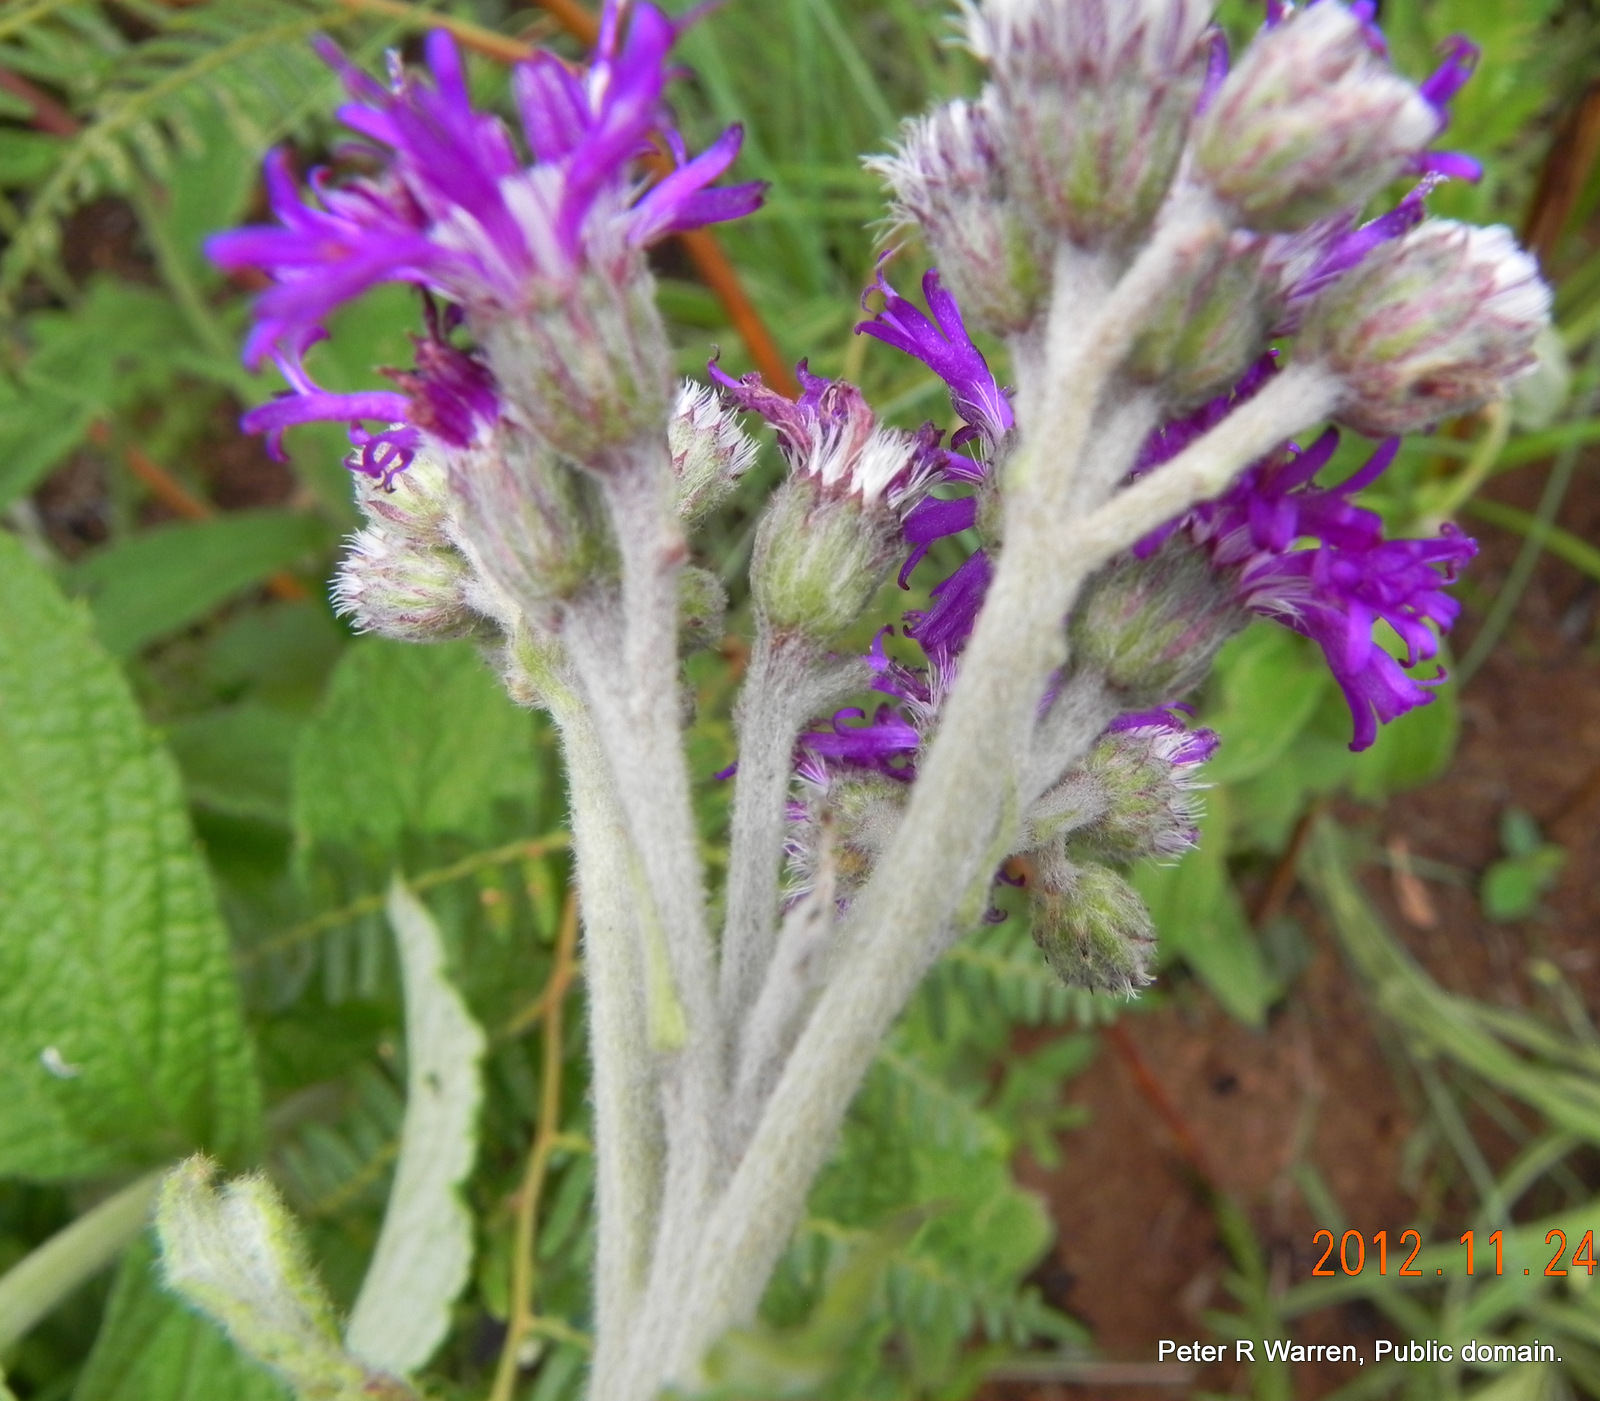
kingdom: Plantae
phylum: Tracheophyta
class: Magnoliopsida
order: Asterales
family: Asteraceae
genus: Hilliardiella
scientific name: Hilliardiella hirsuta
